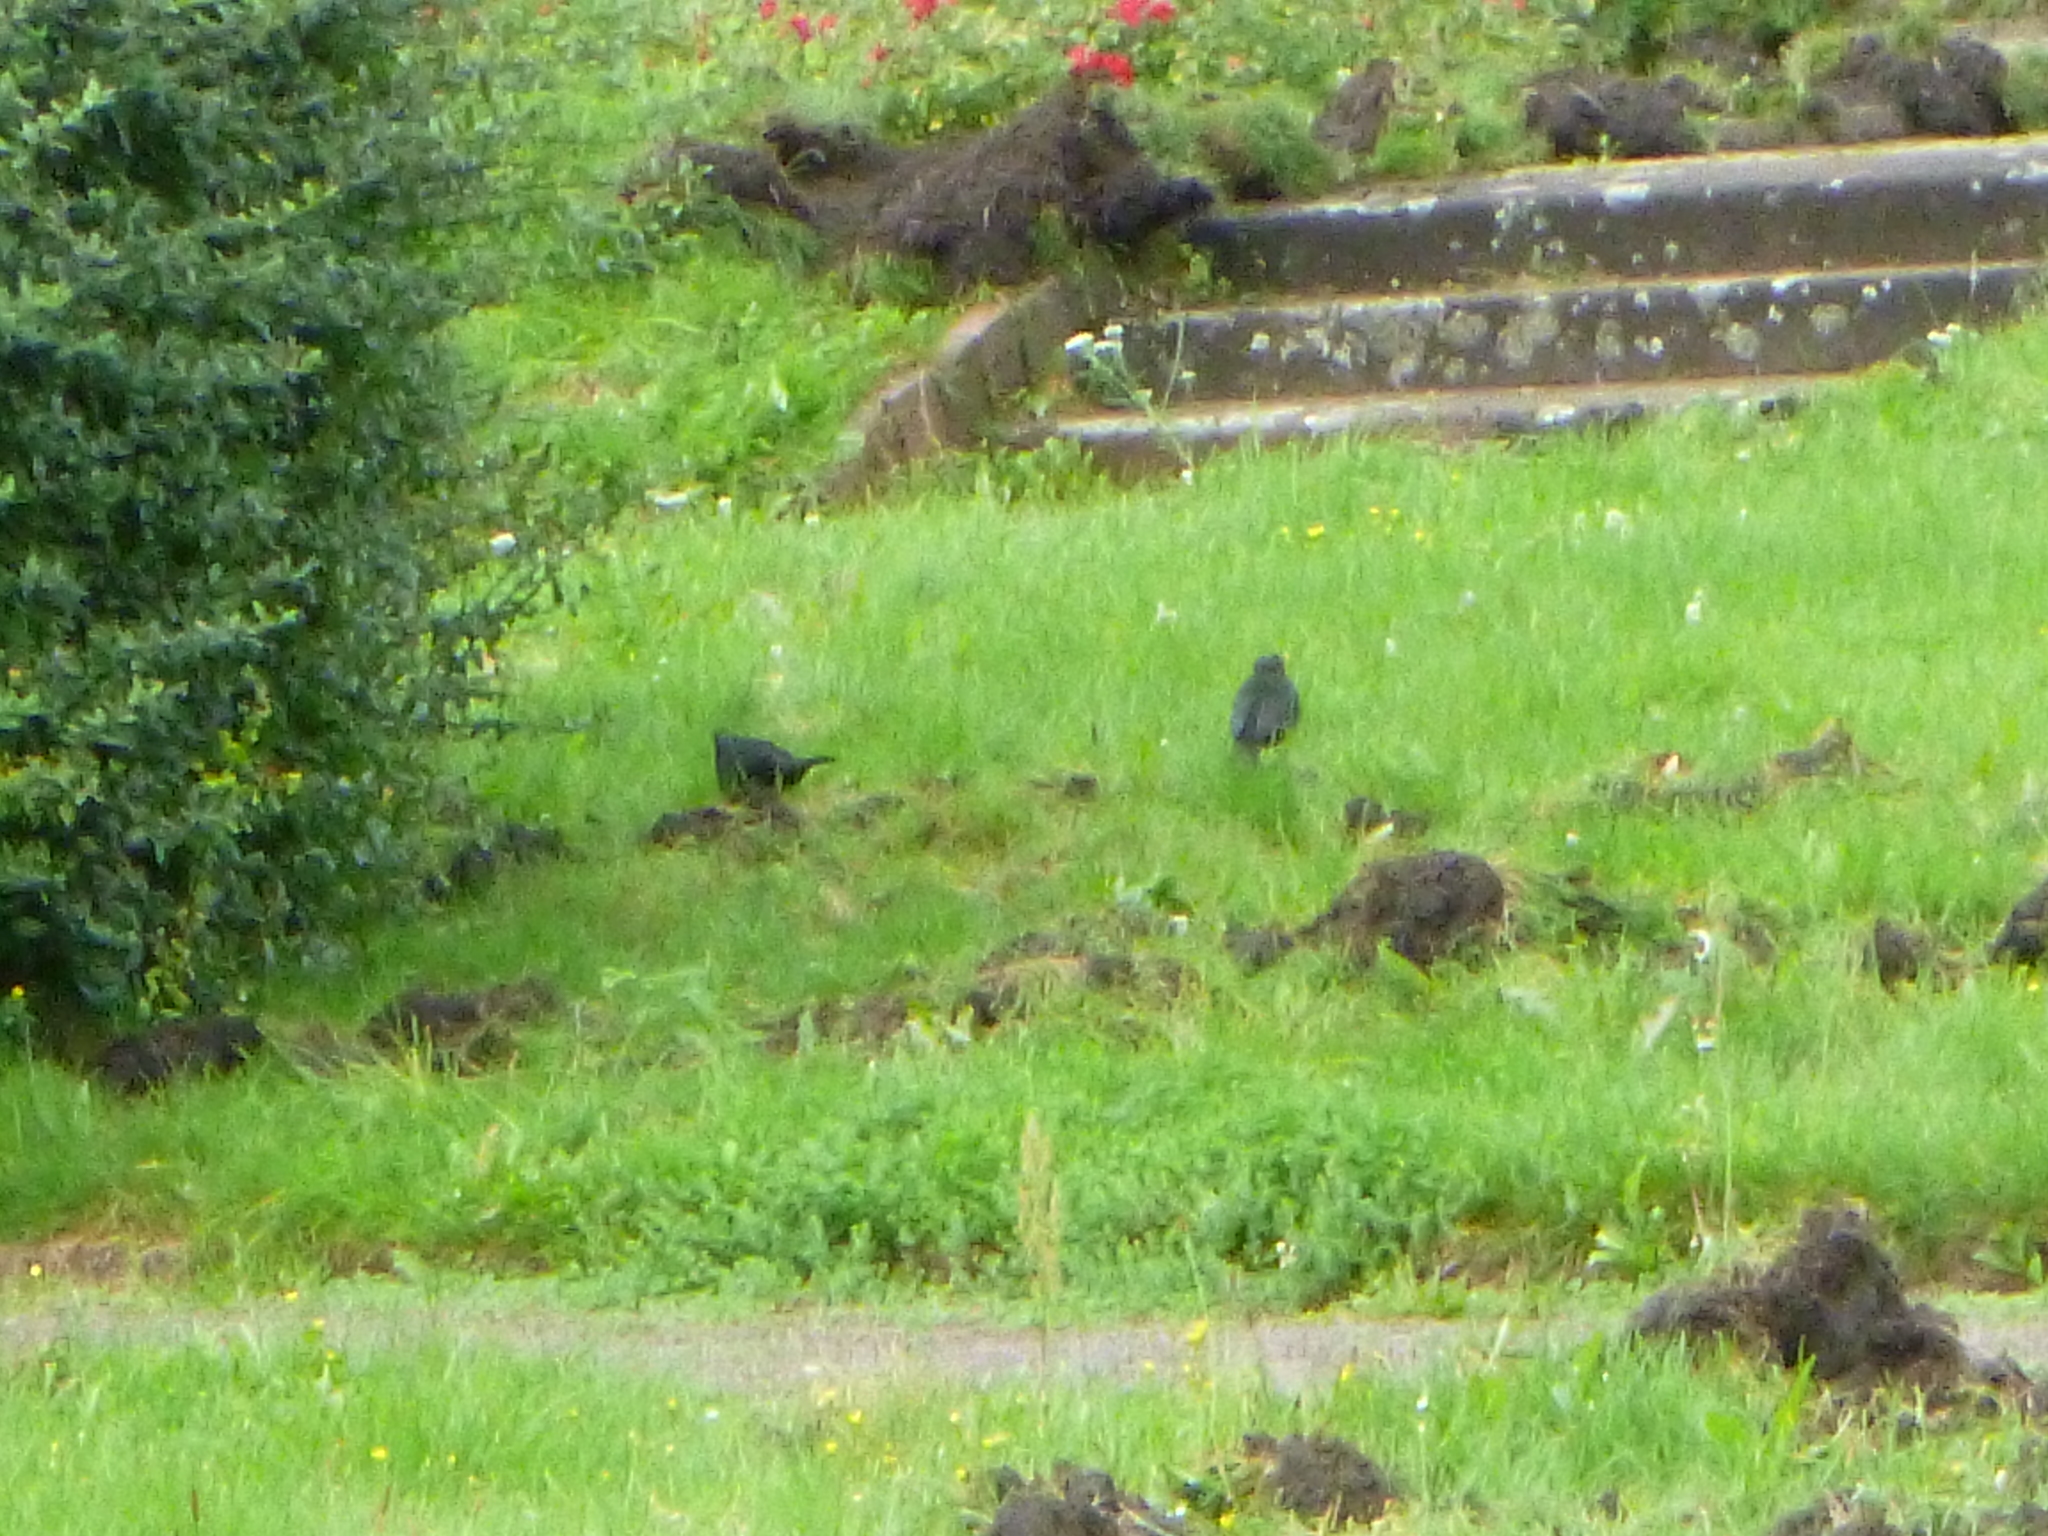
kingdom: Animalia
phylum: Chordata
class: Aves
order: Passeriformes
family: Turdidae
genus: Turdus
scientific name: Turdus merula
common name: Common blackbird
